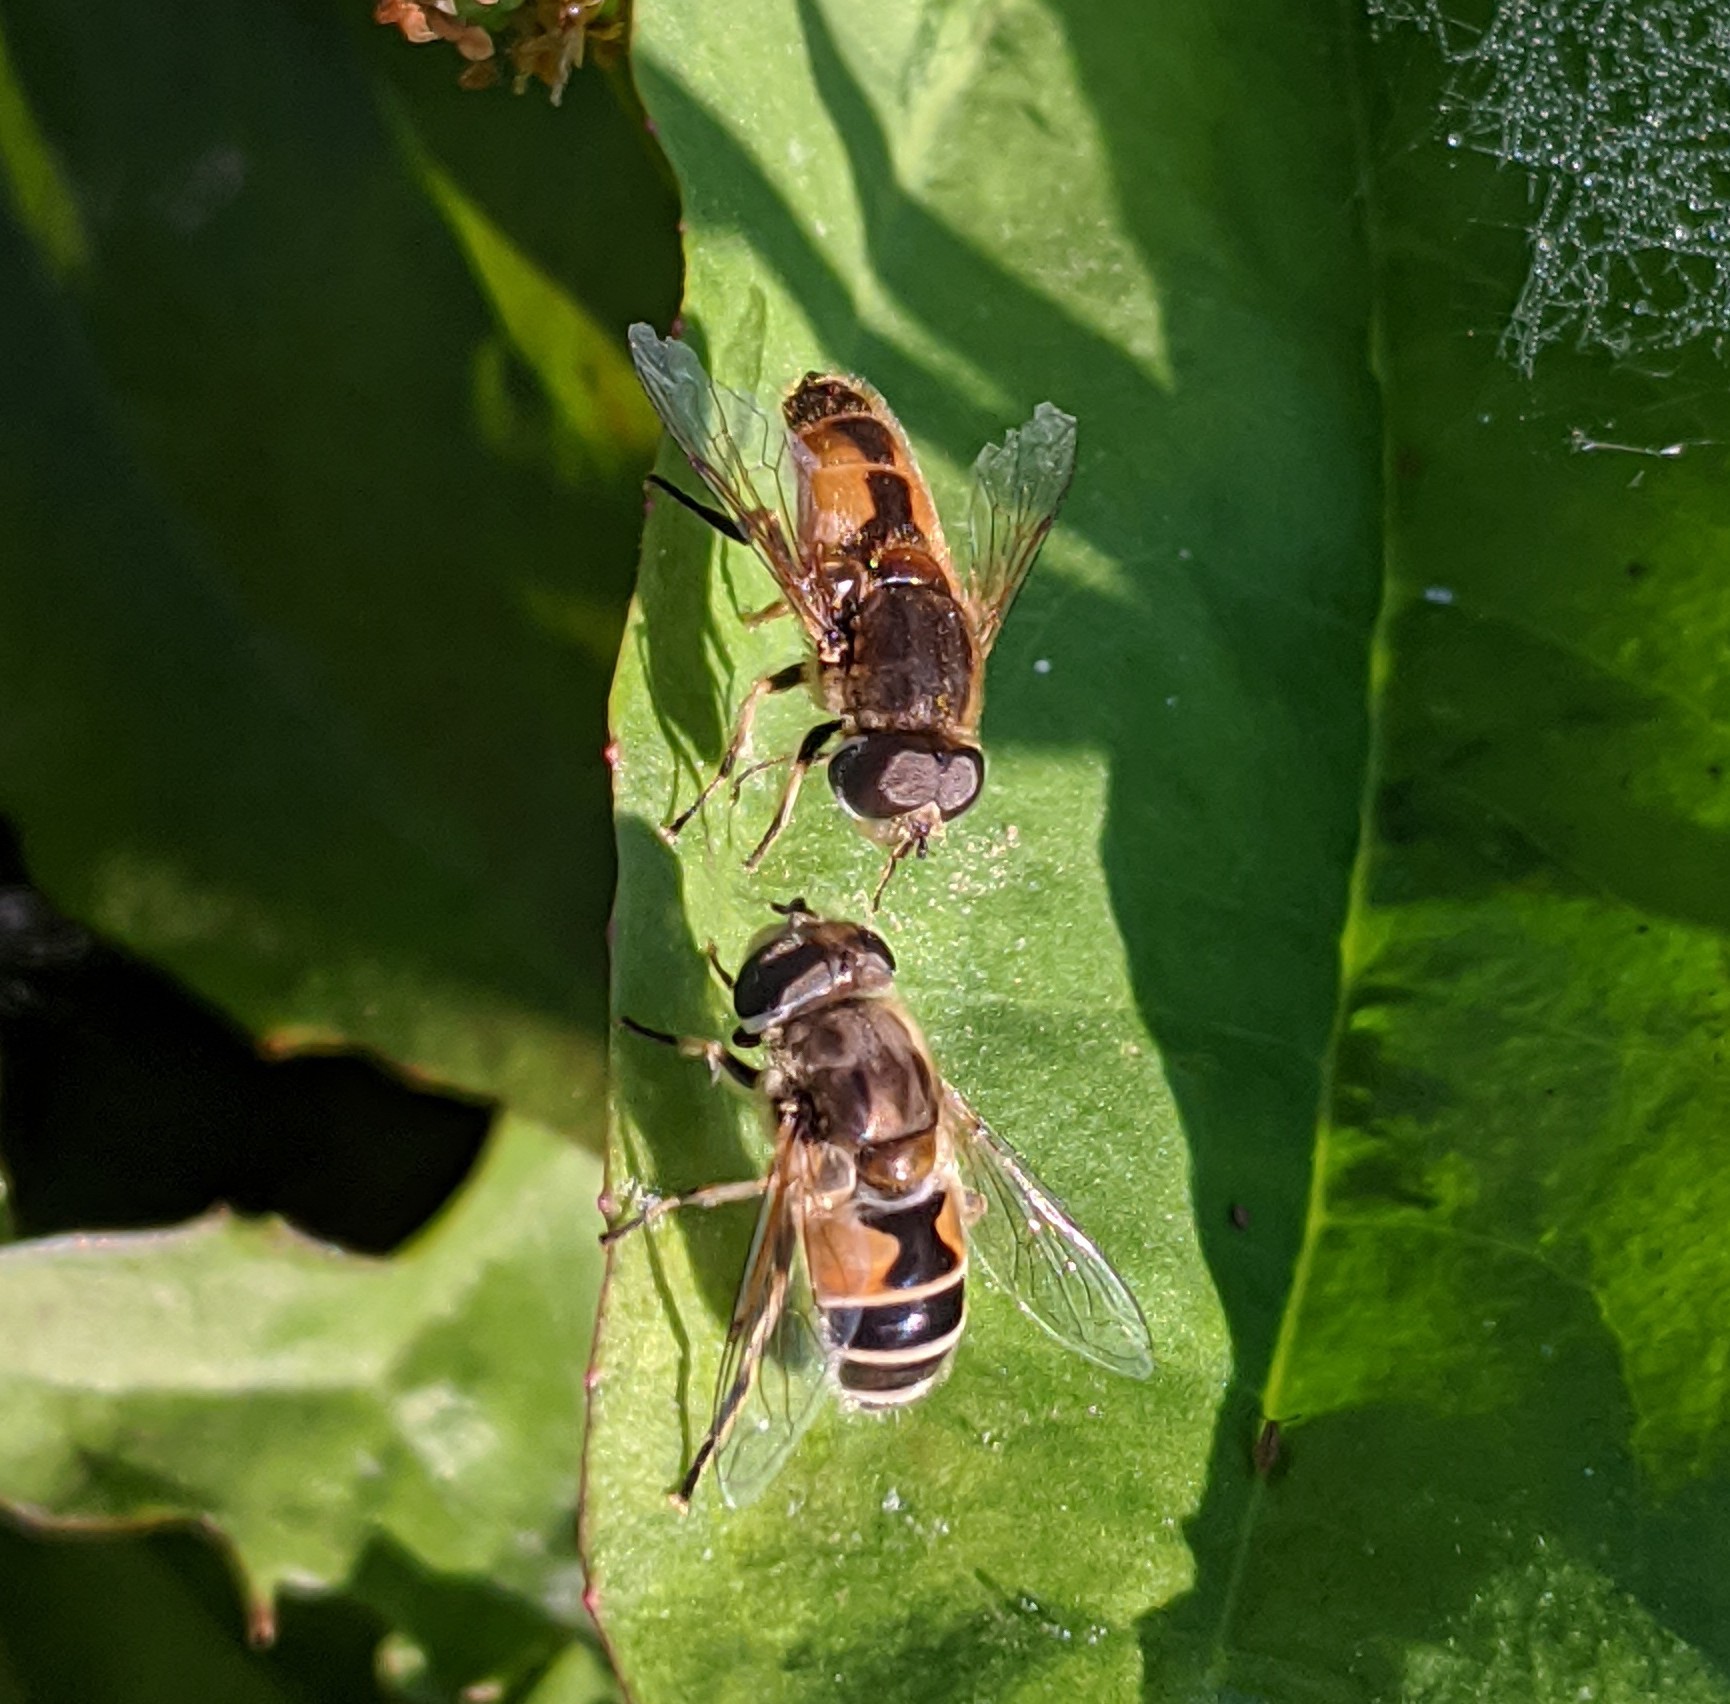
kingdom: Animalia
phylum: Arthropoda
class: Insecta
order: Diptera
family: Syrphidae
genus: Eristalis
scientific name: Eristalis arbustorum
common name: Hover fly
